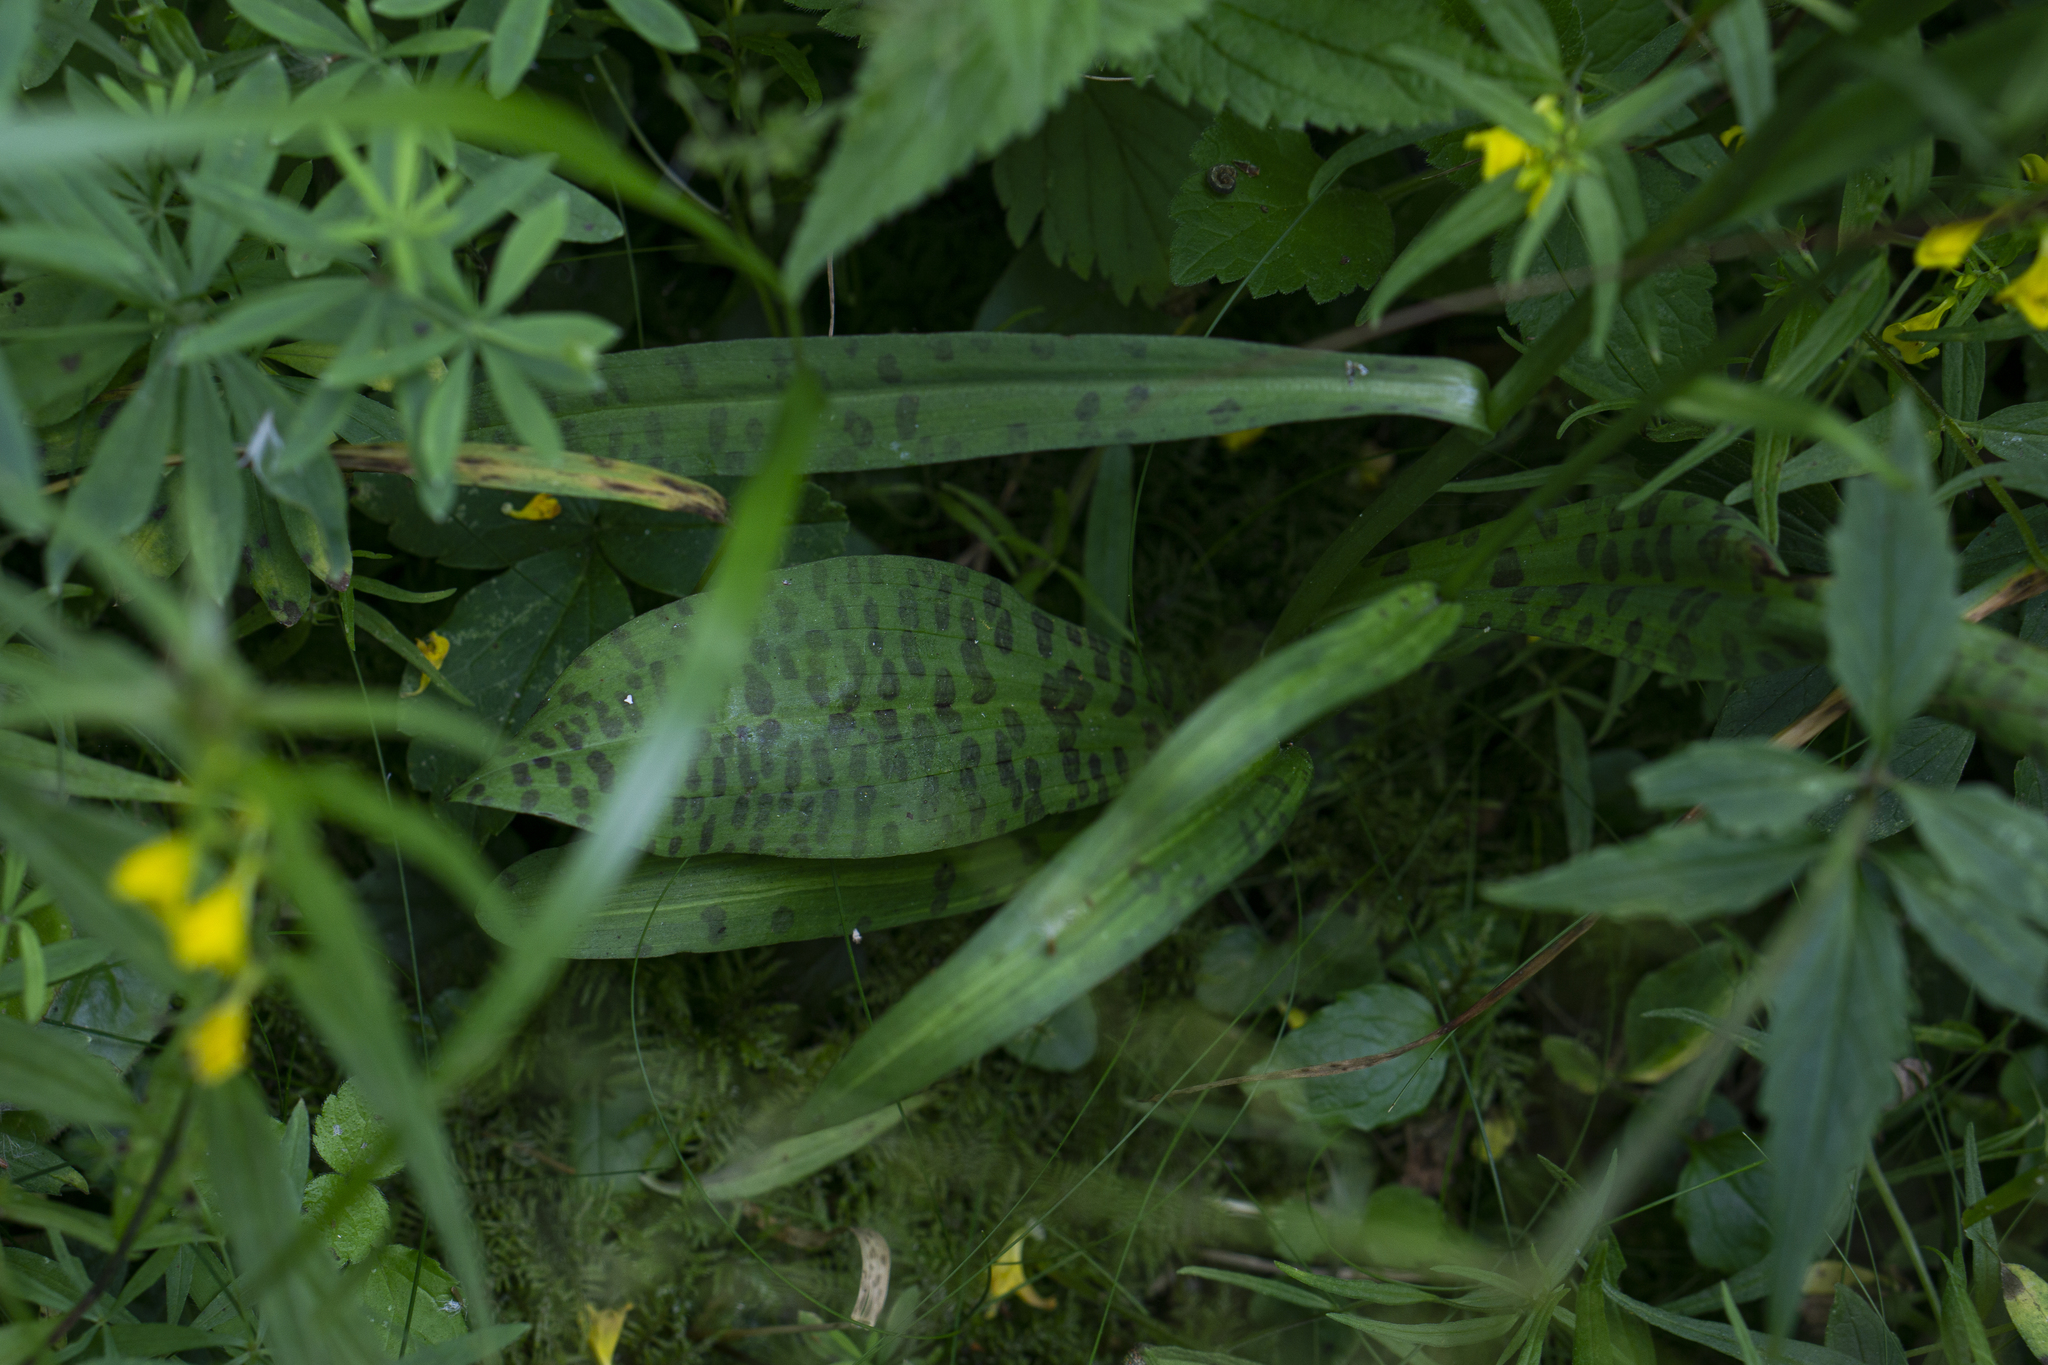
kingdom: Plantae
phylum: Tracheophyta
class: Liliopsida
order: Asparagales
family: Orchidaceae
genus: Dactylorhiza
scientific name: Dactylorhiza maculata
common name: Heath spotted-orchid
